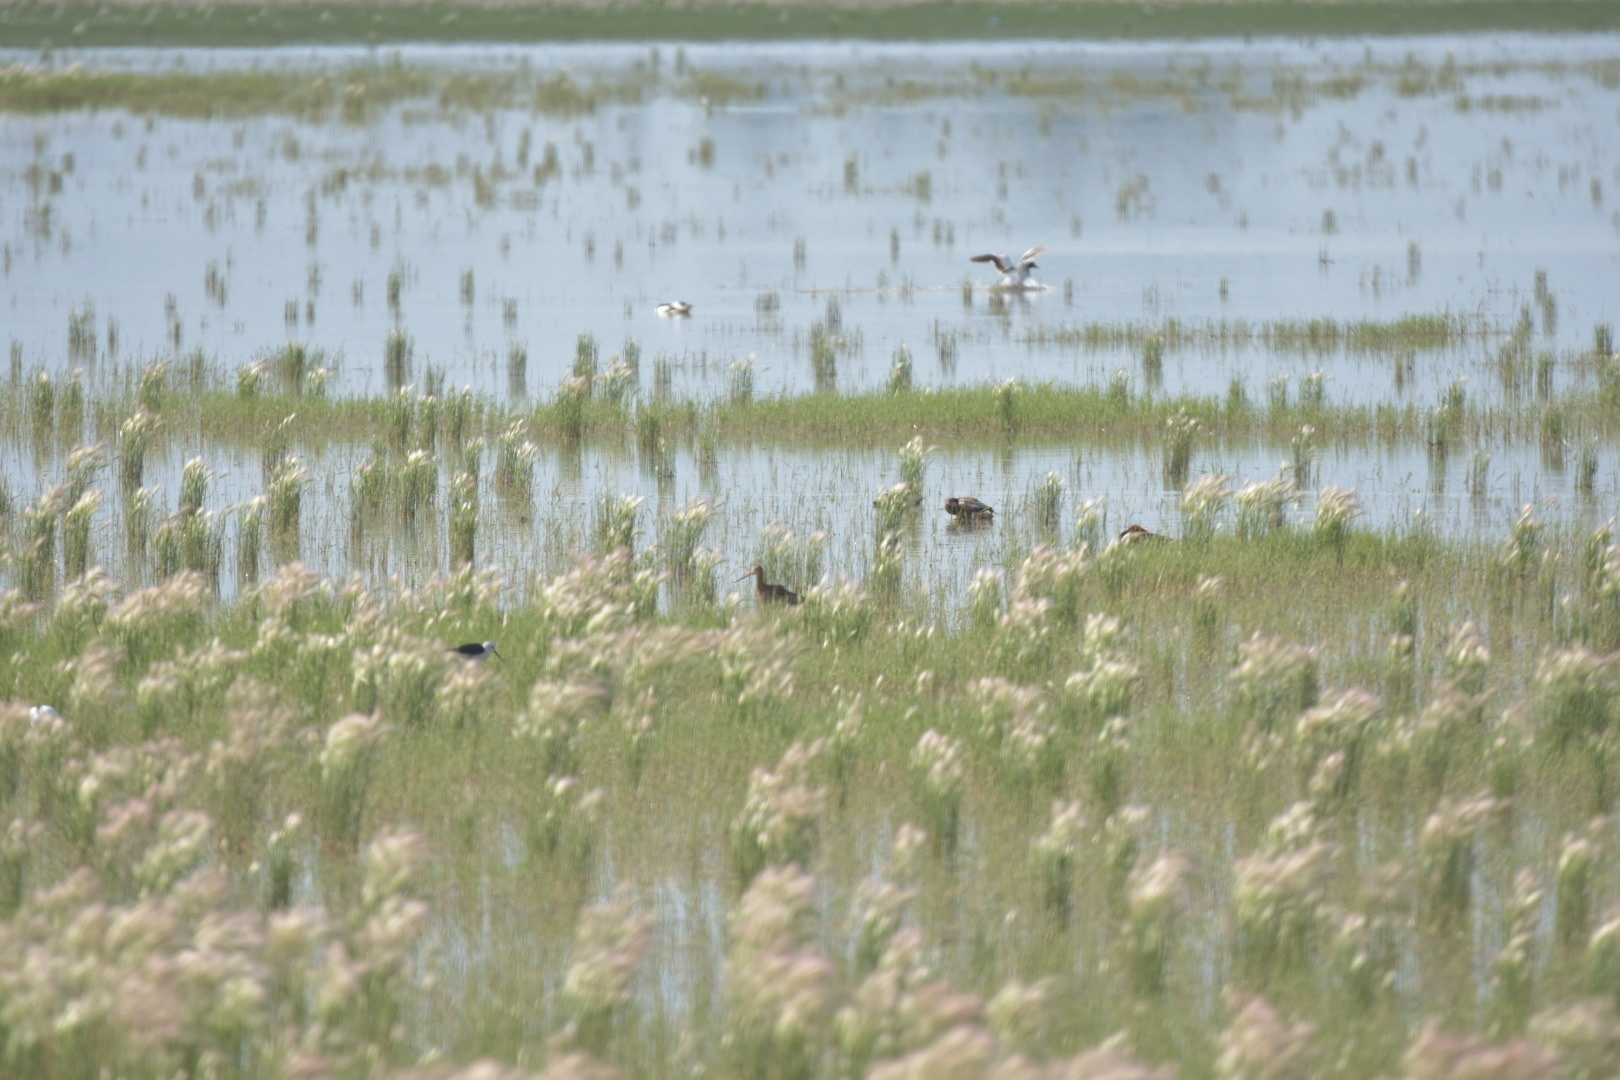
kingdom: Animalia
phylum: Chordata
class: Aves
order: Charadriiformes
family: Scolopacidae
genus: Limosa
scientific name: Limosa limosa
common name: Black-tailed godwit
